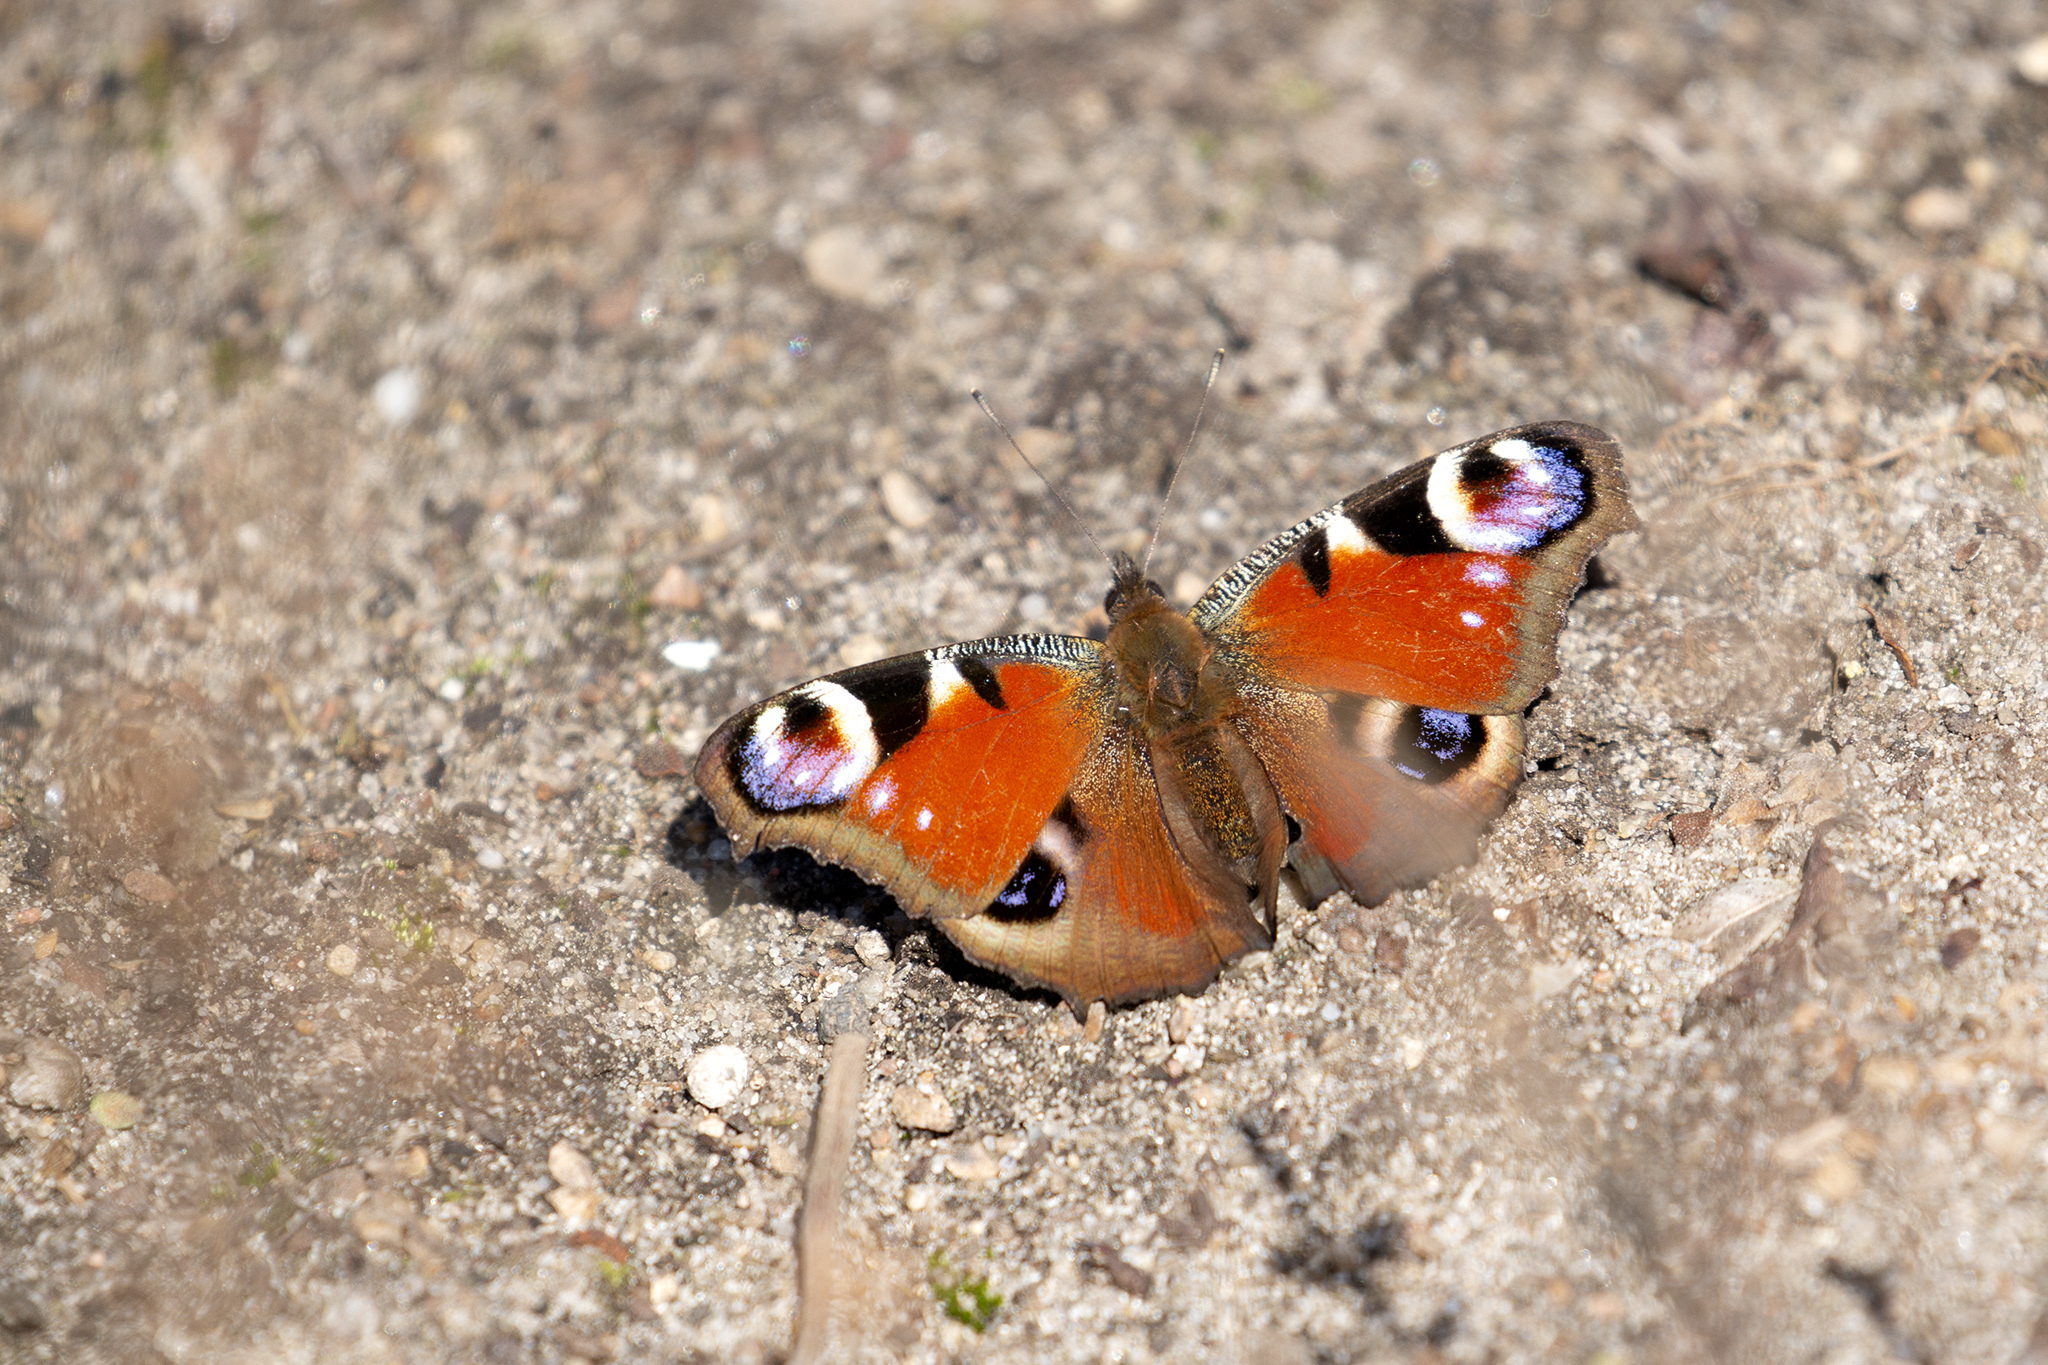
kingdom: Animalia
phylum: Arthropoda
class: Insecta
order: Lepidoptera
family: Nymphalidae
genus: Aglais
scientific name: Aglais io
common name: Peacock
